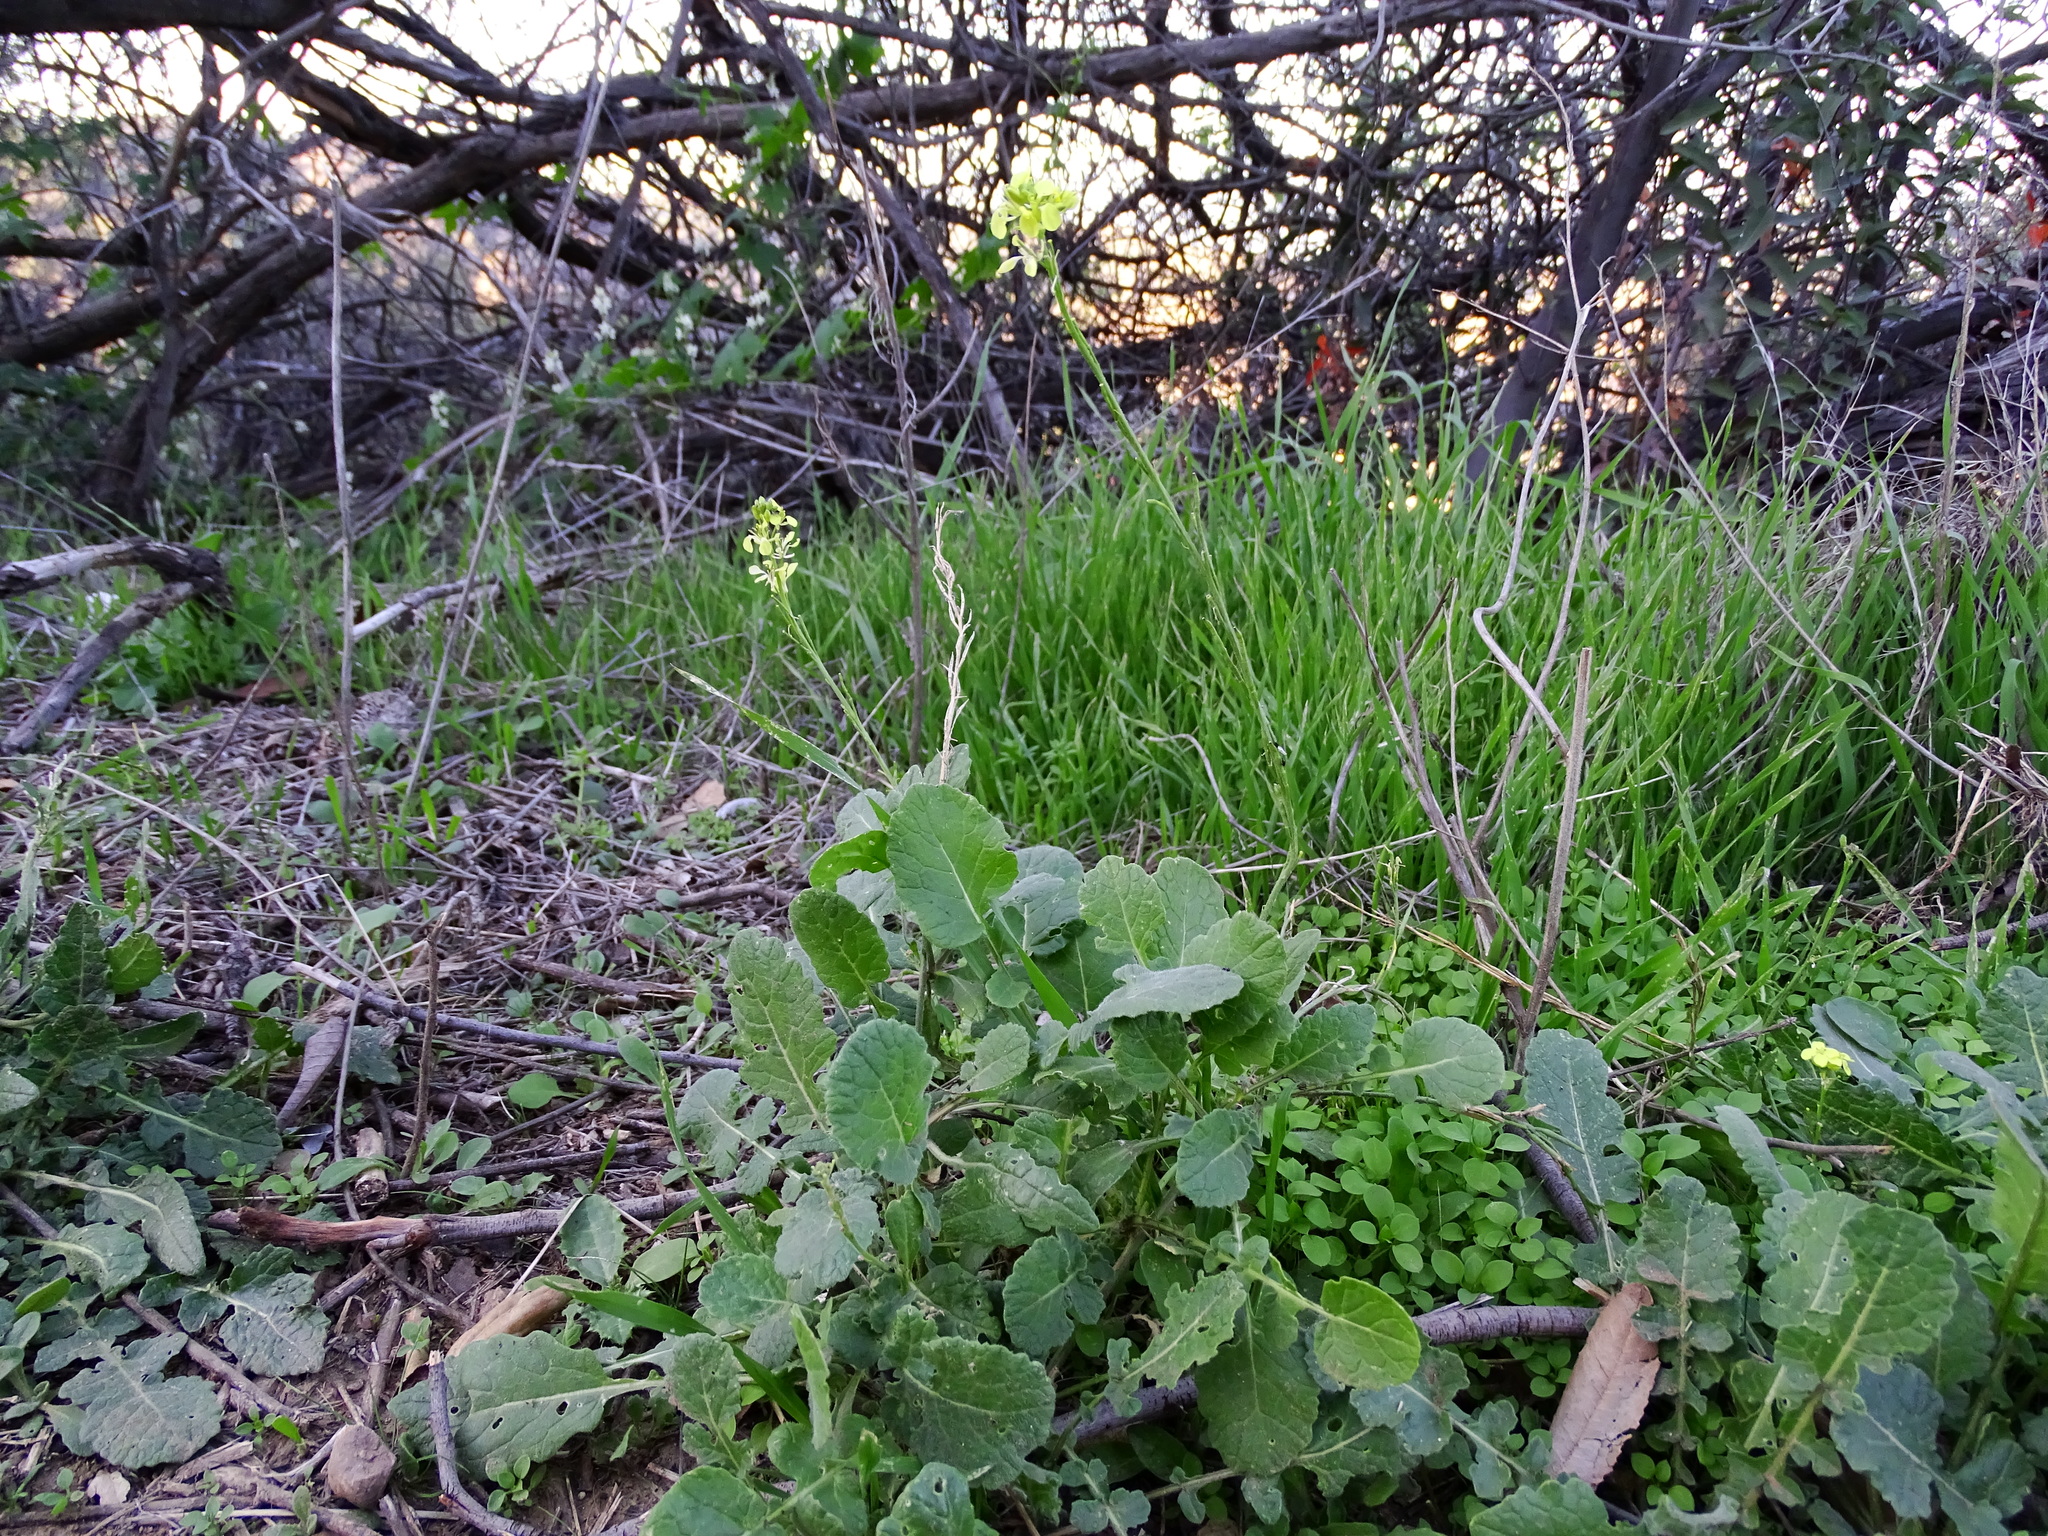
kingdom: Plantae
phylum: Tracheophyta
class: Magnoliopsida
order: Brassicales
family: Brassicaceae
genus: Hirschfeldia
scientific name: Hirschfeldia incana
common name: Hoary mustard
